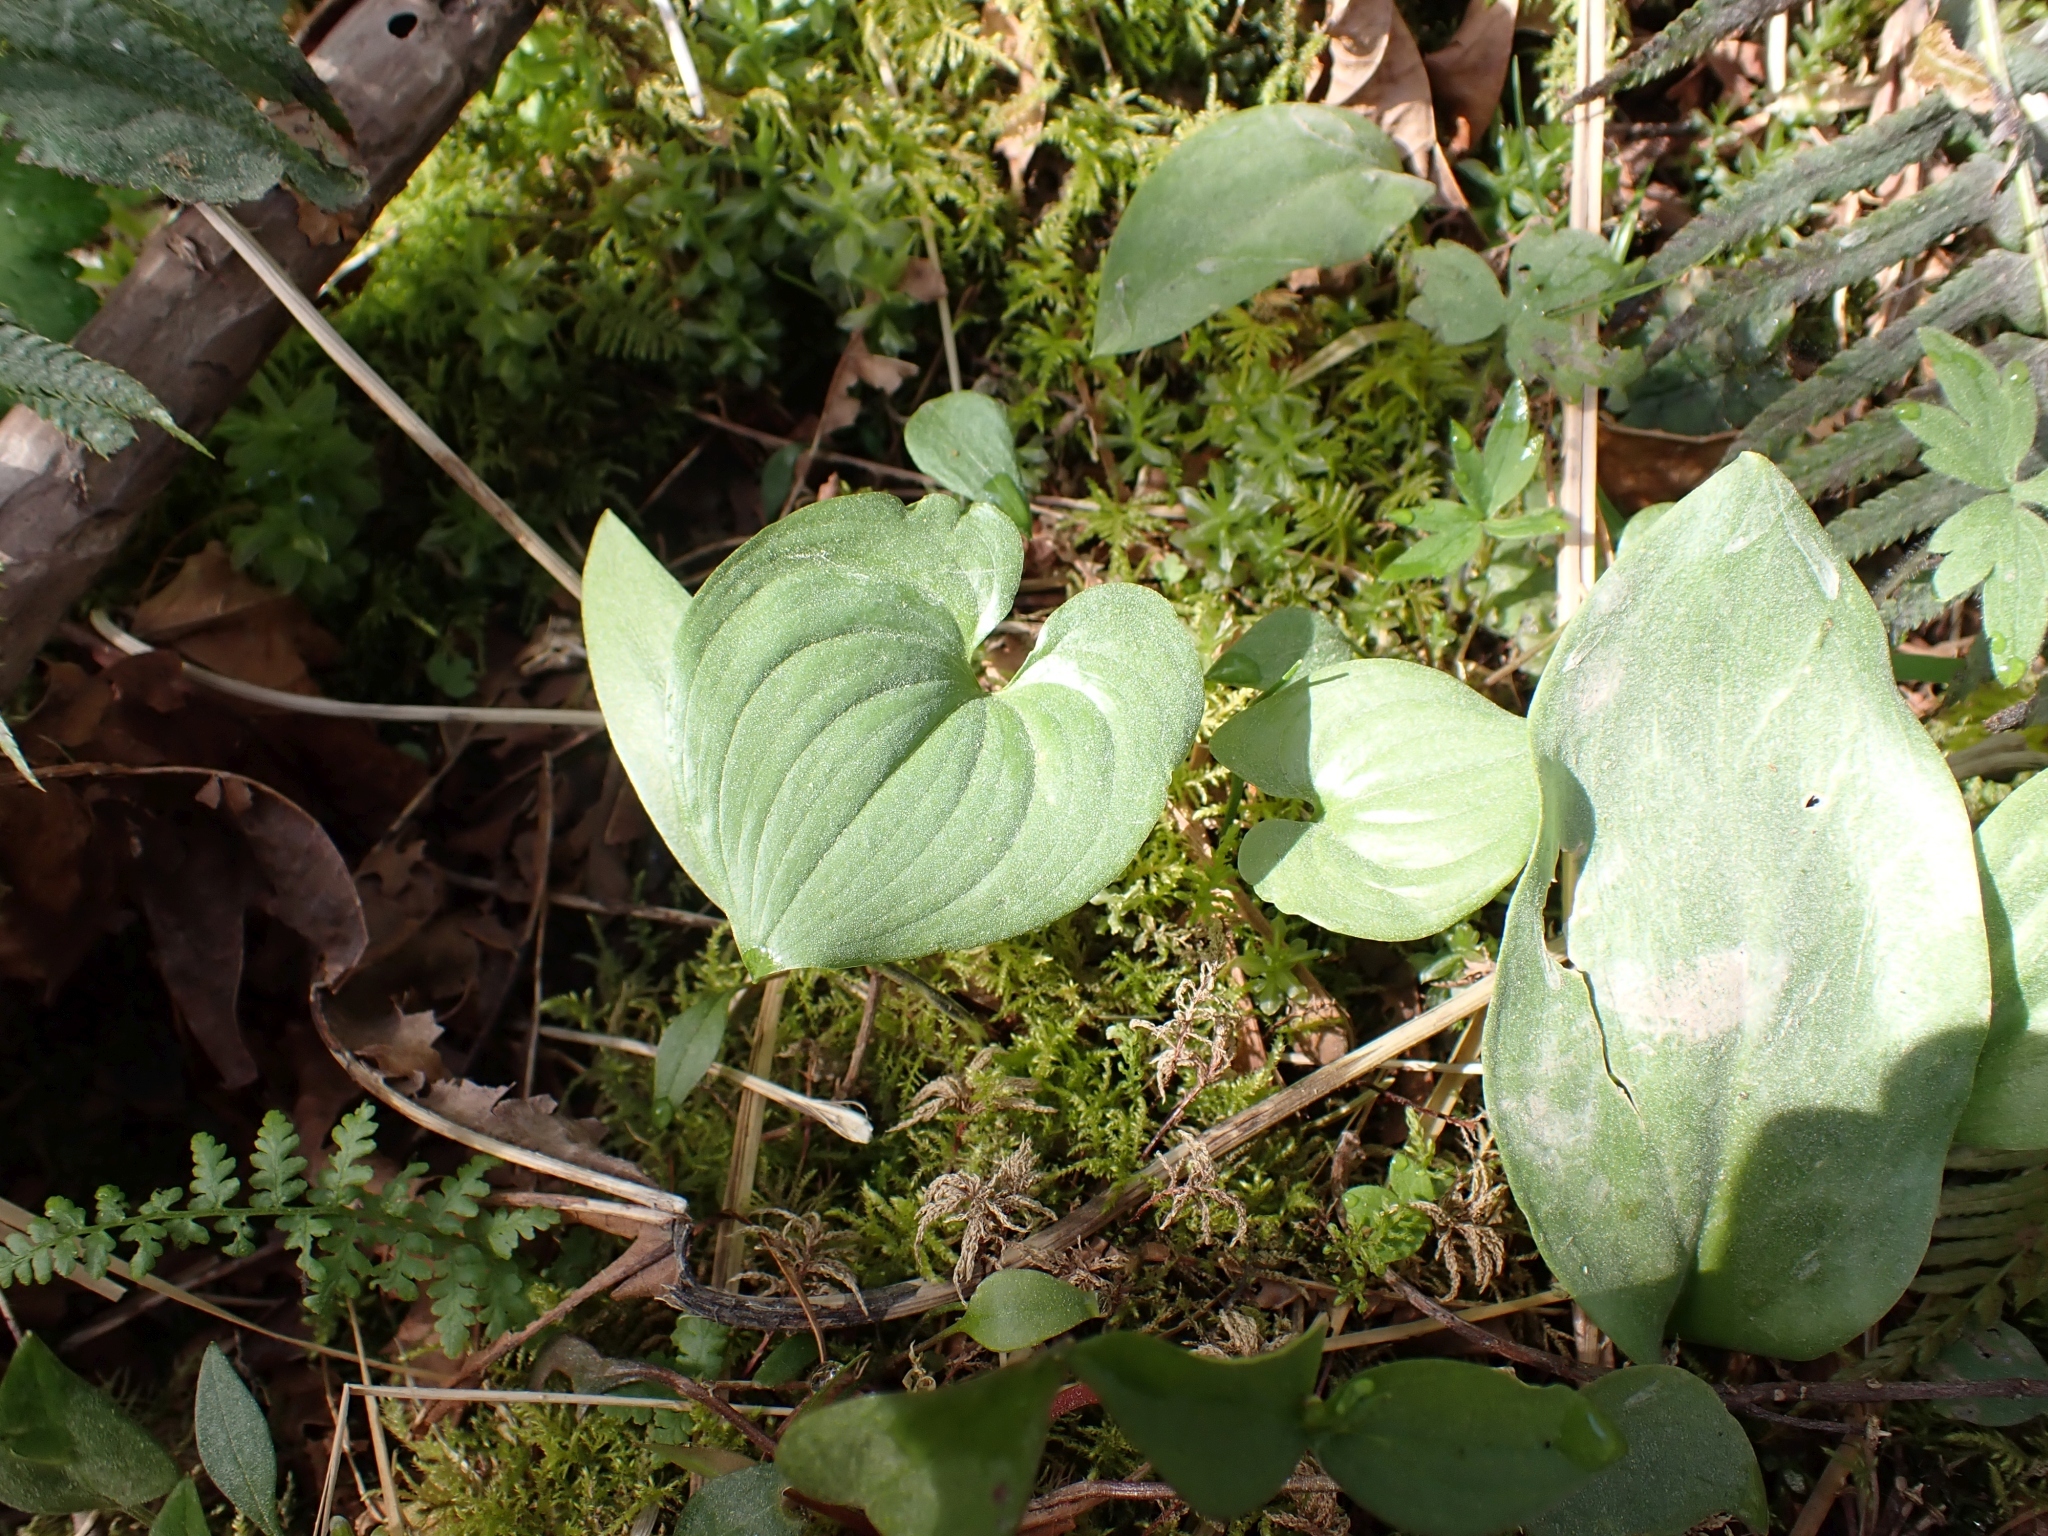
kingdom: Plantae
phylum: Tracheophyta
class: Liliopsida
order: Asparagales
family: Asparagaceae
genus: Maianthemum
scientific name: Maianthemum dilatatum
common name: False lily-of-the-valley
